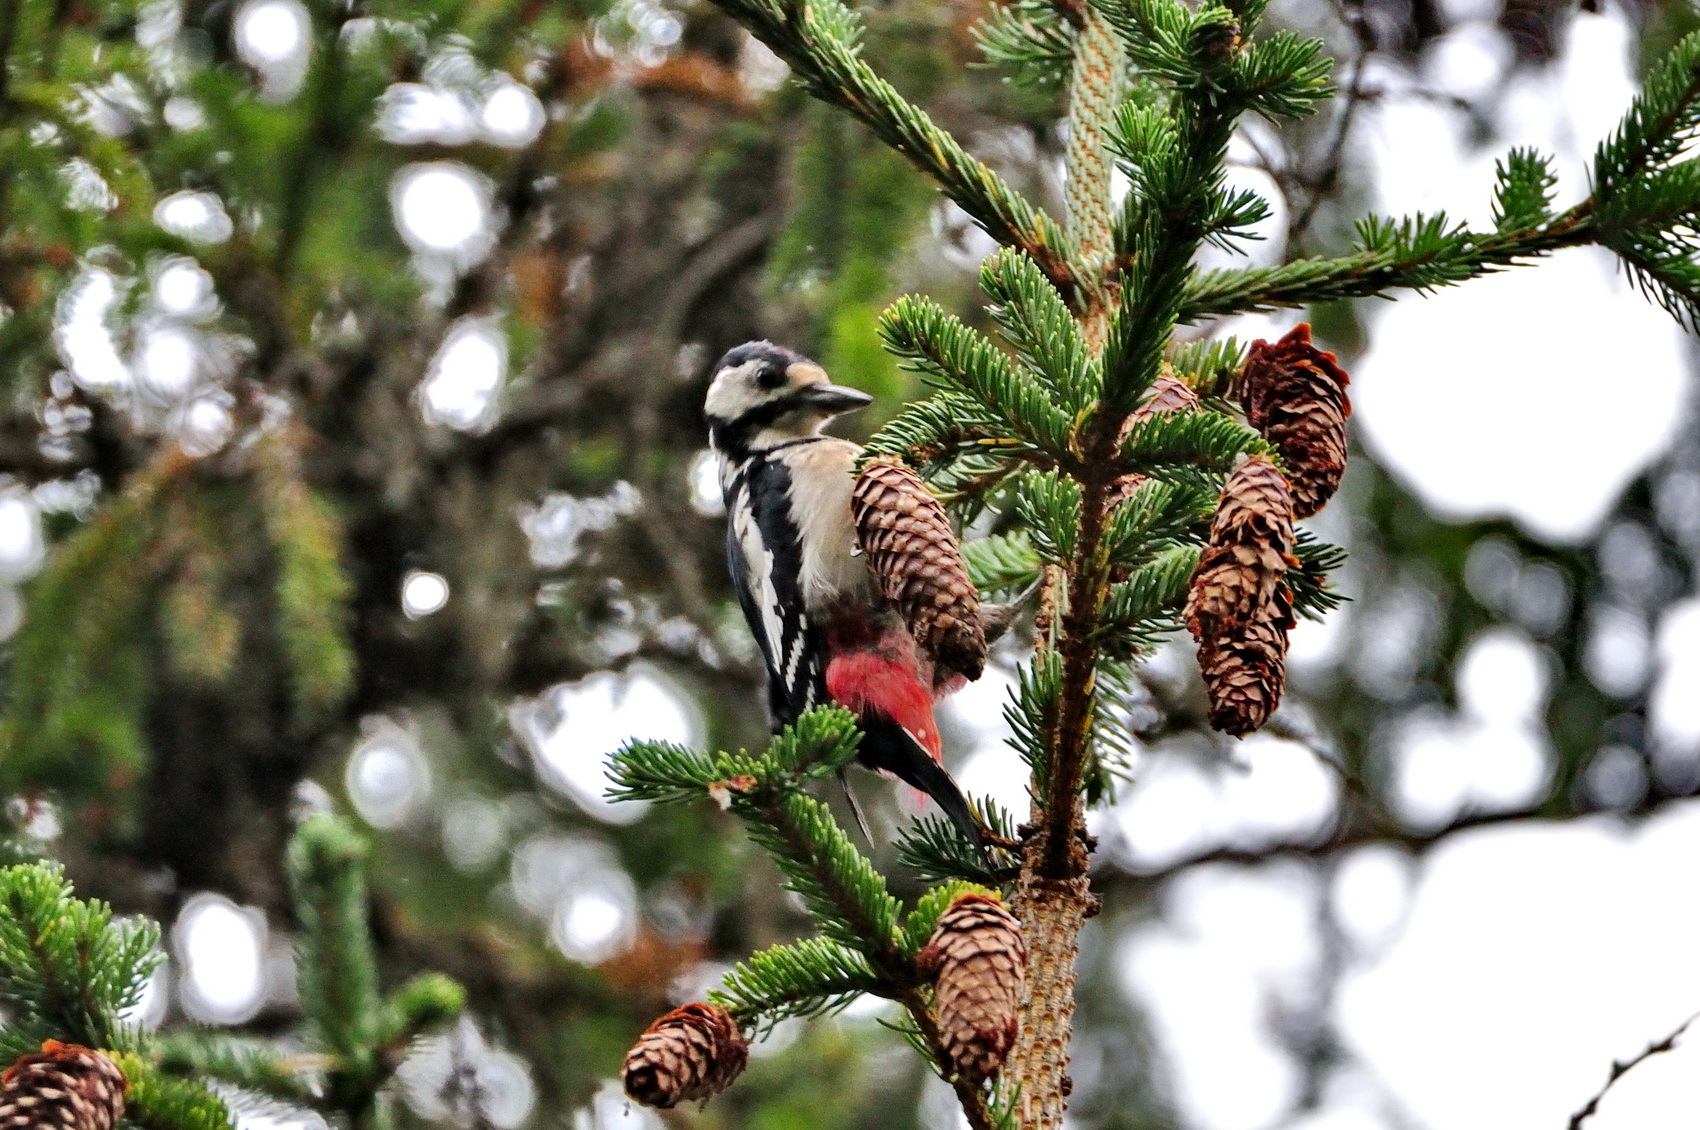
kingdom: Animalia
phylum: Chordata
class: Aves
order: Piciformes
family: Picidae
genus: Dendrocopos
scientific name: Dendrocopos major
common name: Great spotted woodpecker
